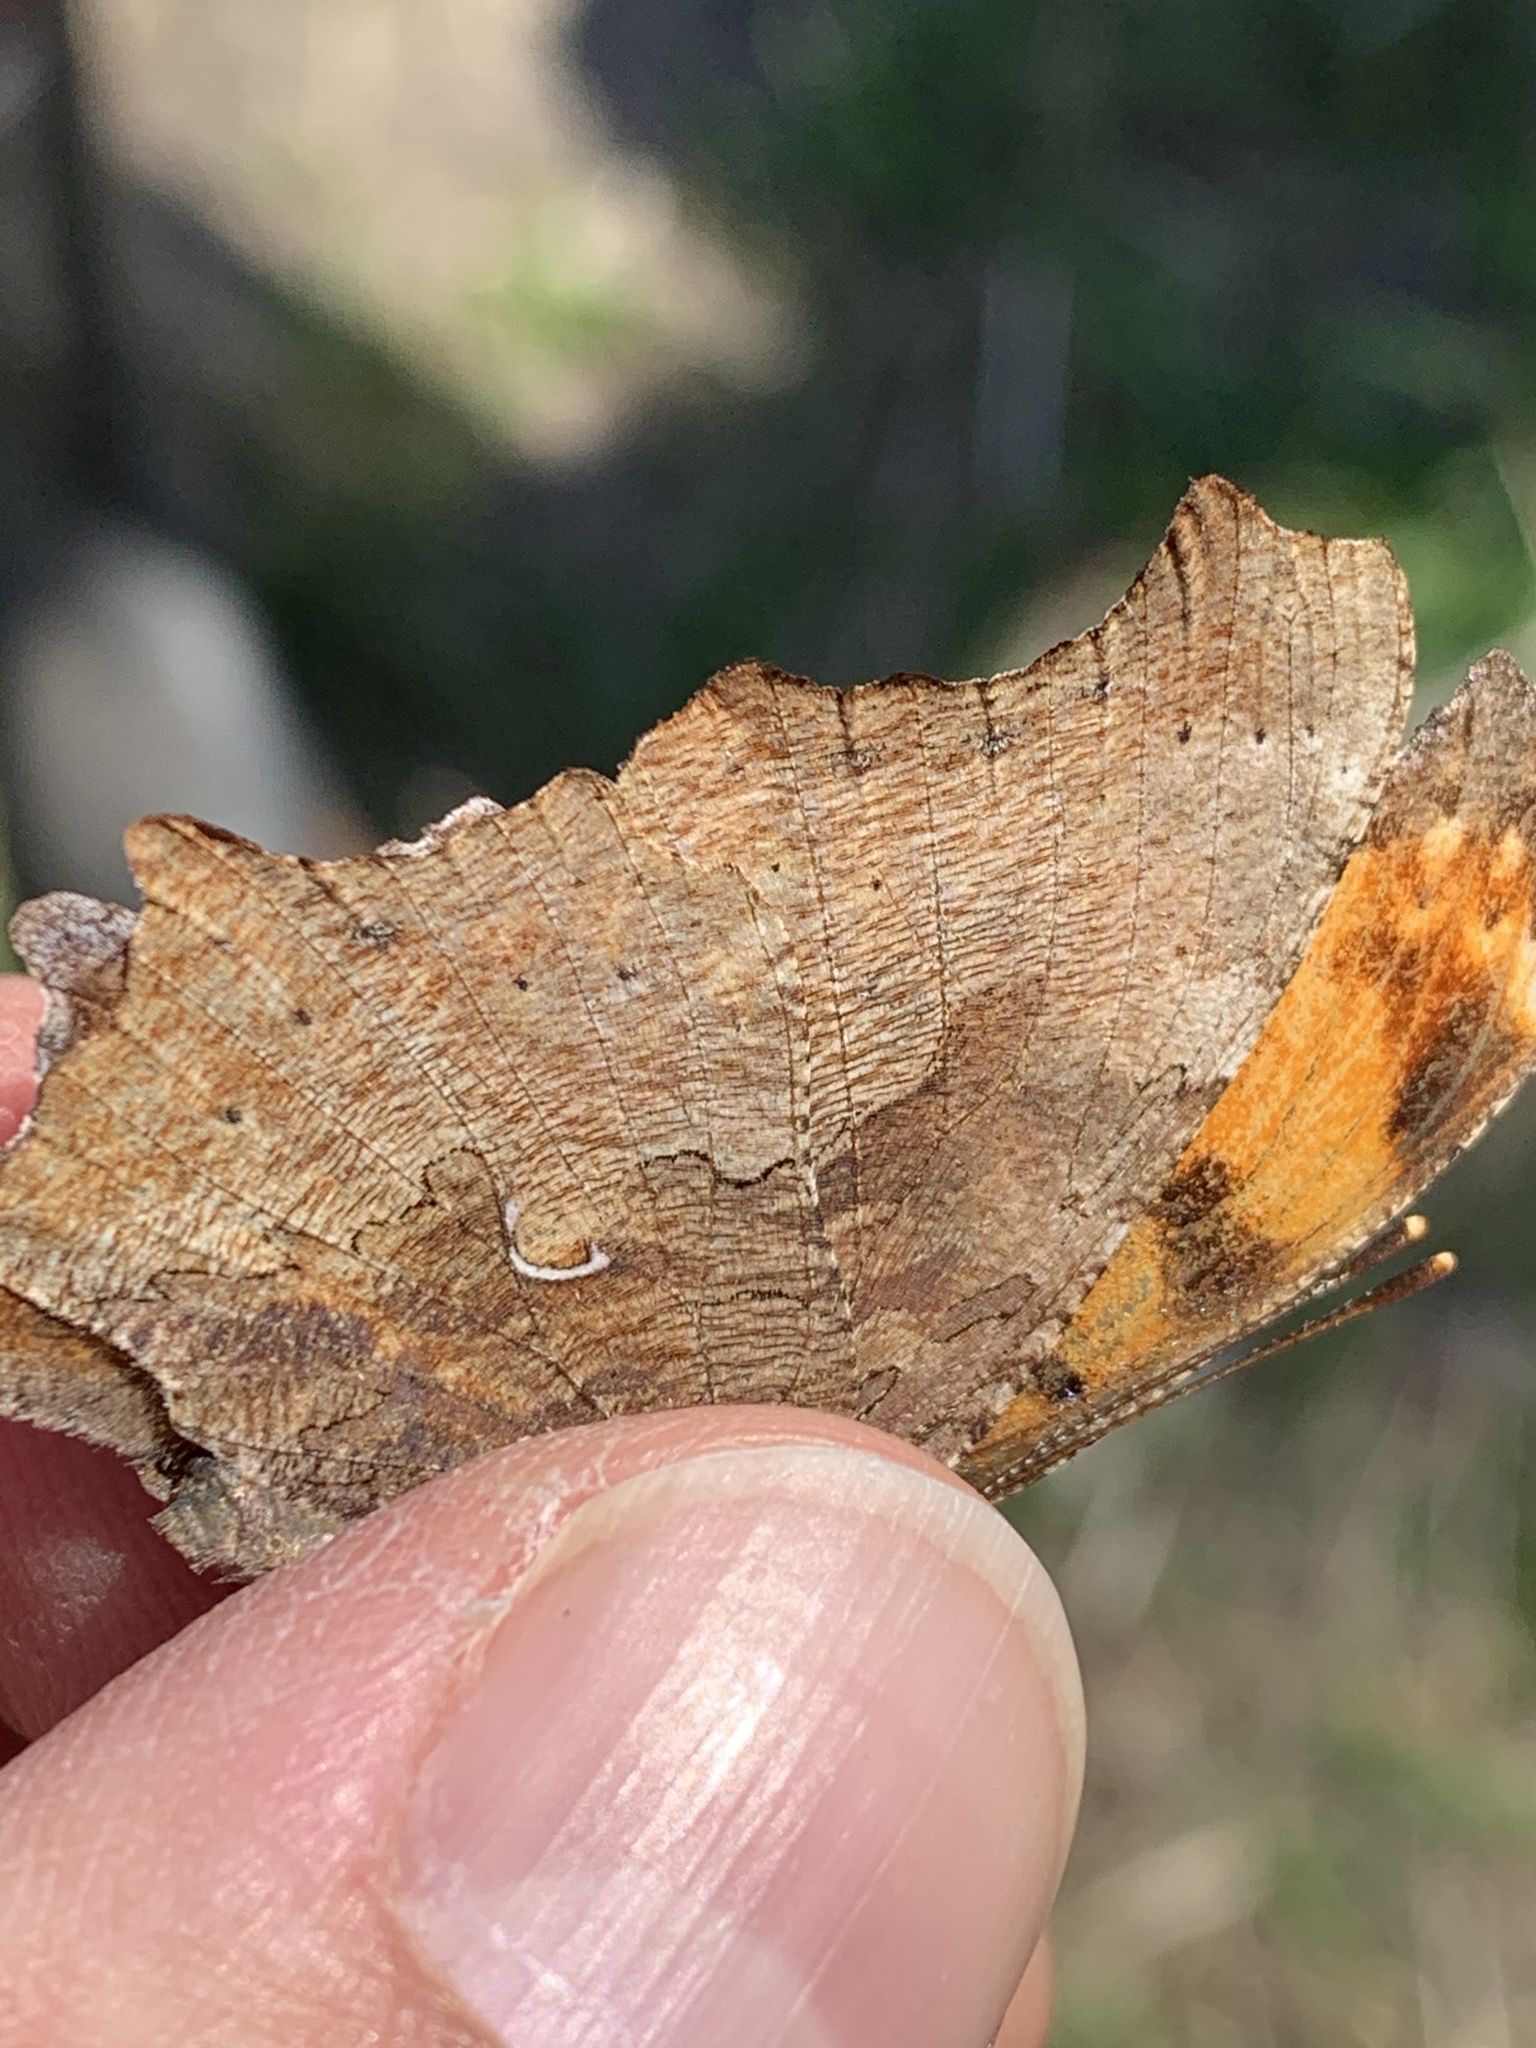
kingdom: Animalia
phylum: Arthropoda
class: Insecta
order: Lepidoptera
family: Nymphalidae
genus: Polygonia
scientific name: Polygonia comma
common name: Eastern comma
